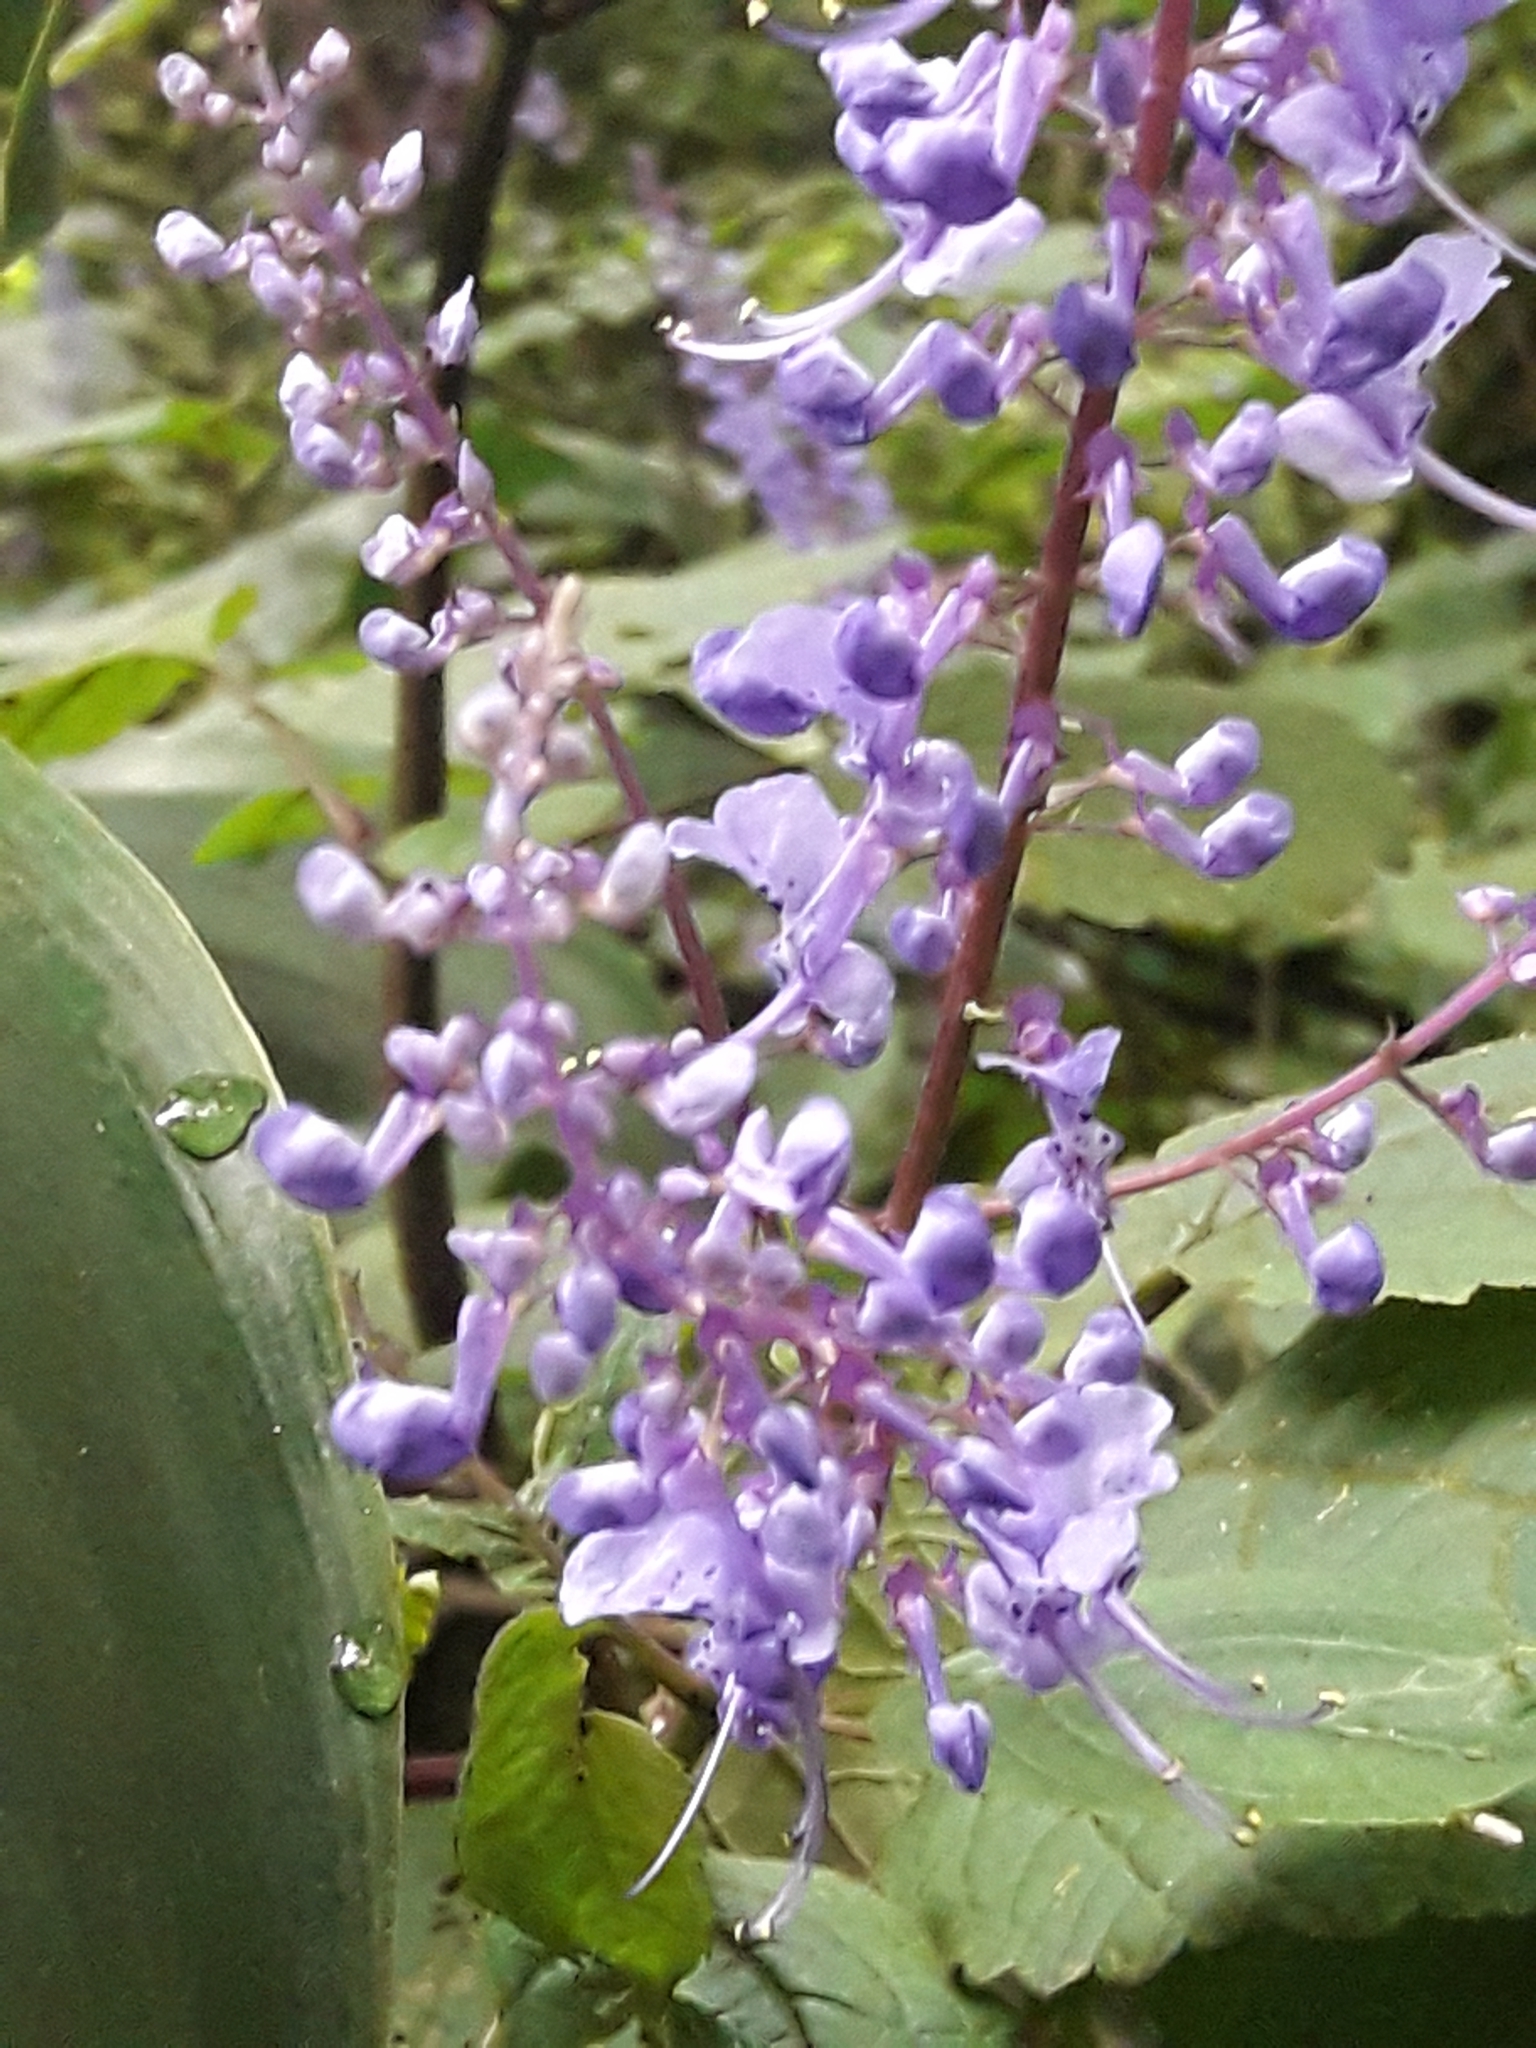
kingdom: Plantae
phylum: Tracheophyta
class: Magnoliopsida
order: Lamiales
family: Lamiaceae
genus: Plectranthus
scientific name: Plectranthus fruticosus
